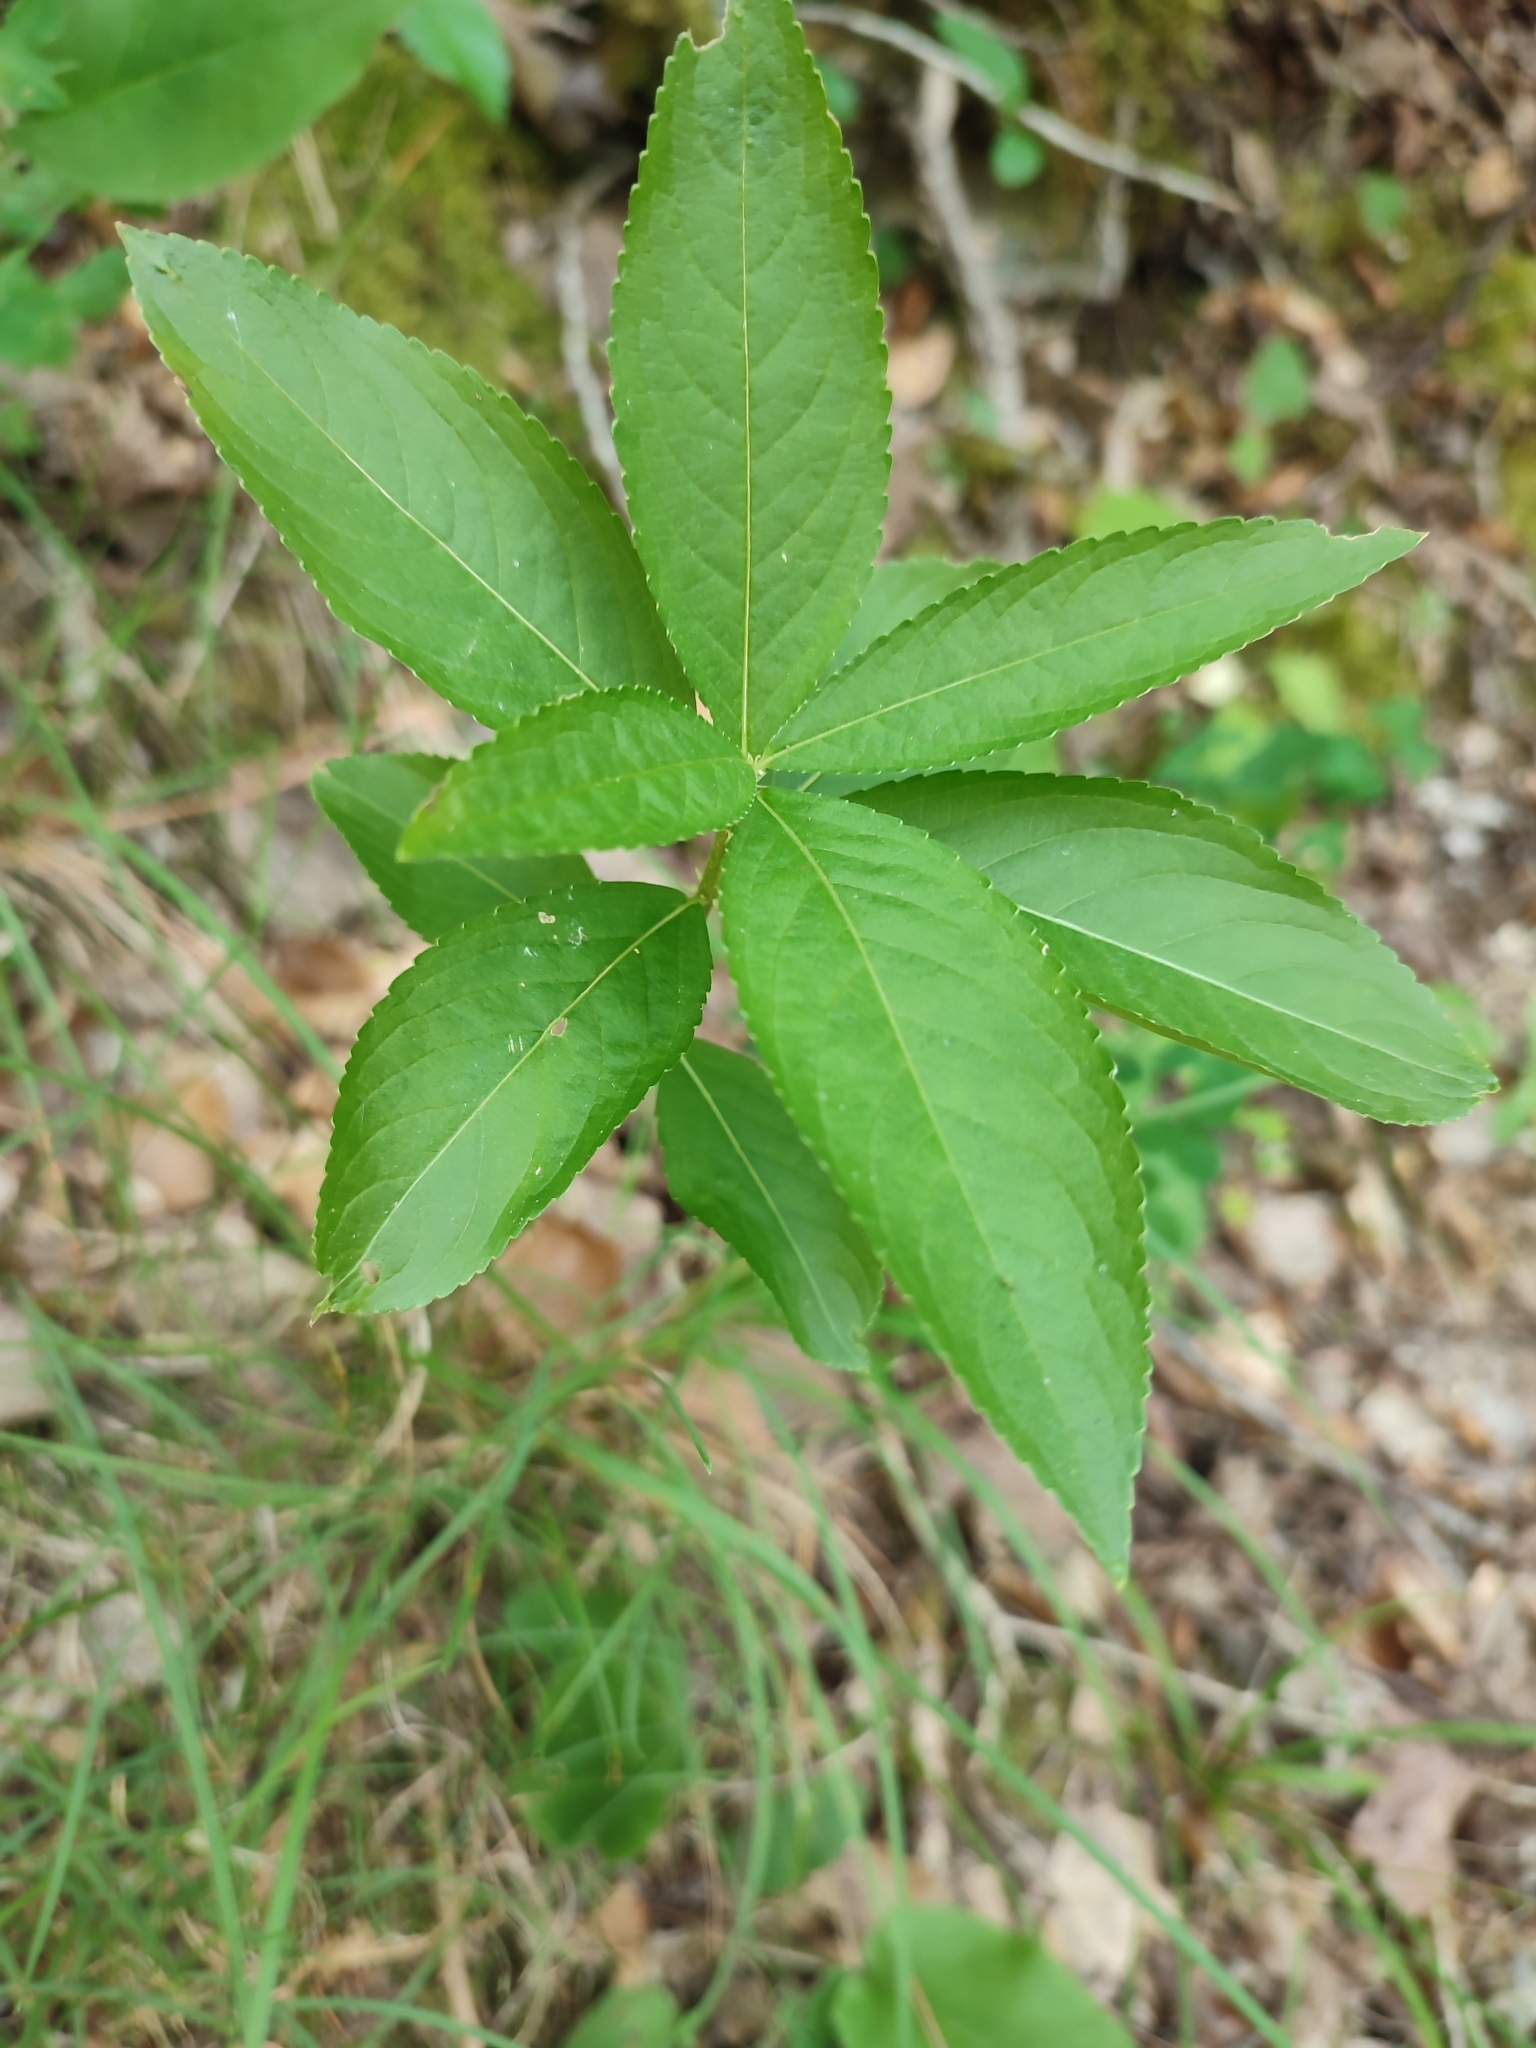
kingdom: Plantae
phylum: Tracheophyta
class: Magnoliopsida
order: Malpighiales
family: Euphorbiaceae
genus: Mercurialis
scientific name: Mercurialis perennis
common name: Dog mercury
